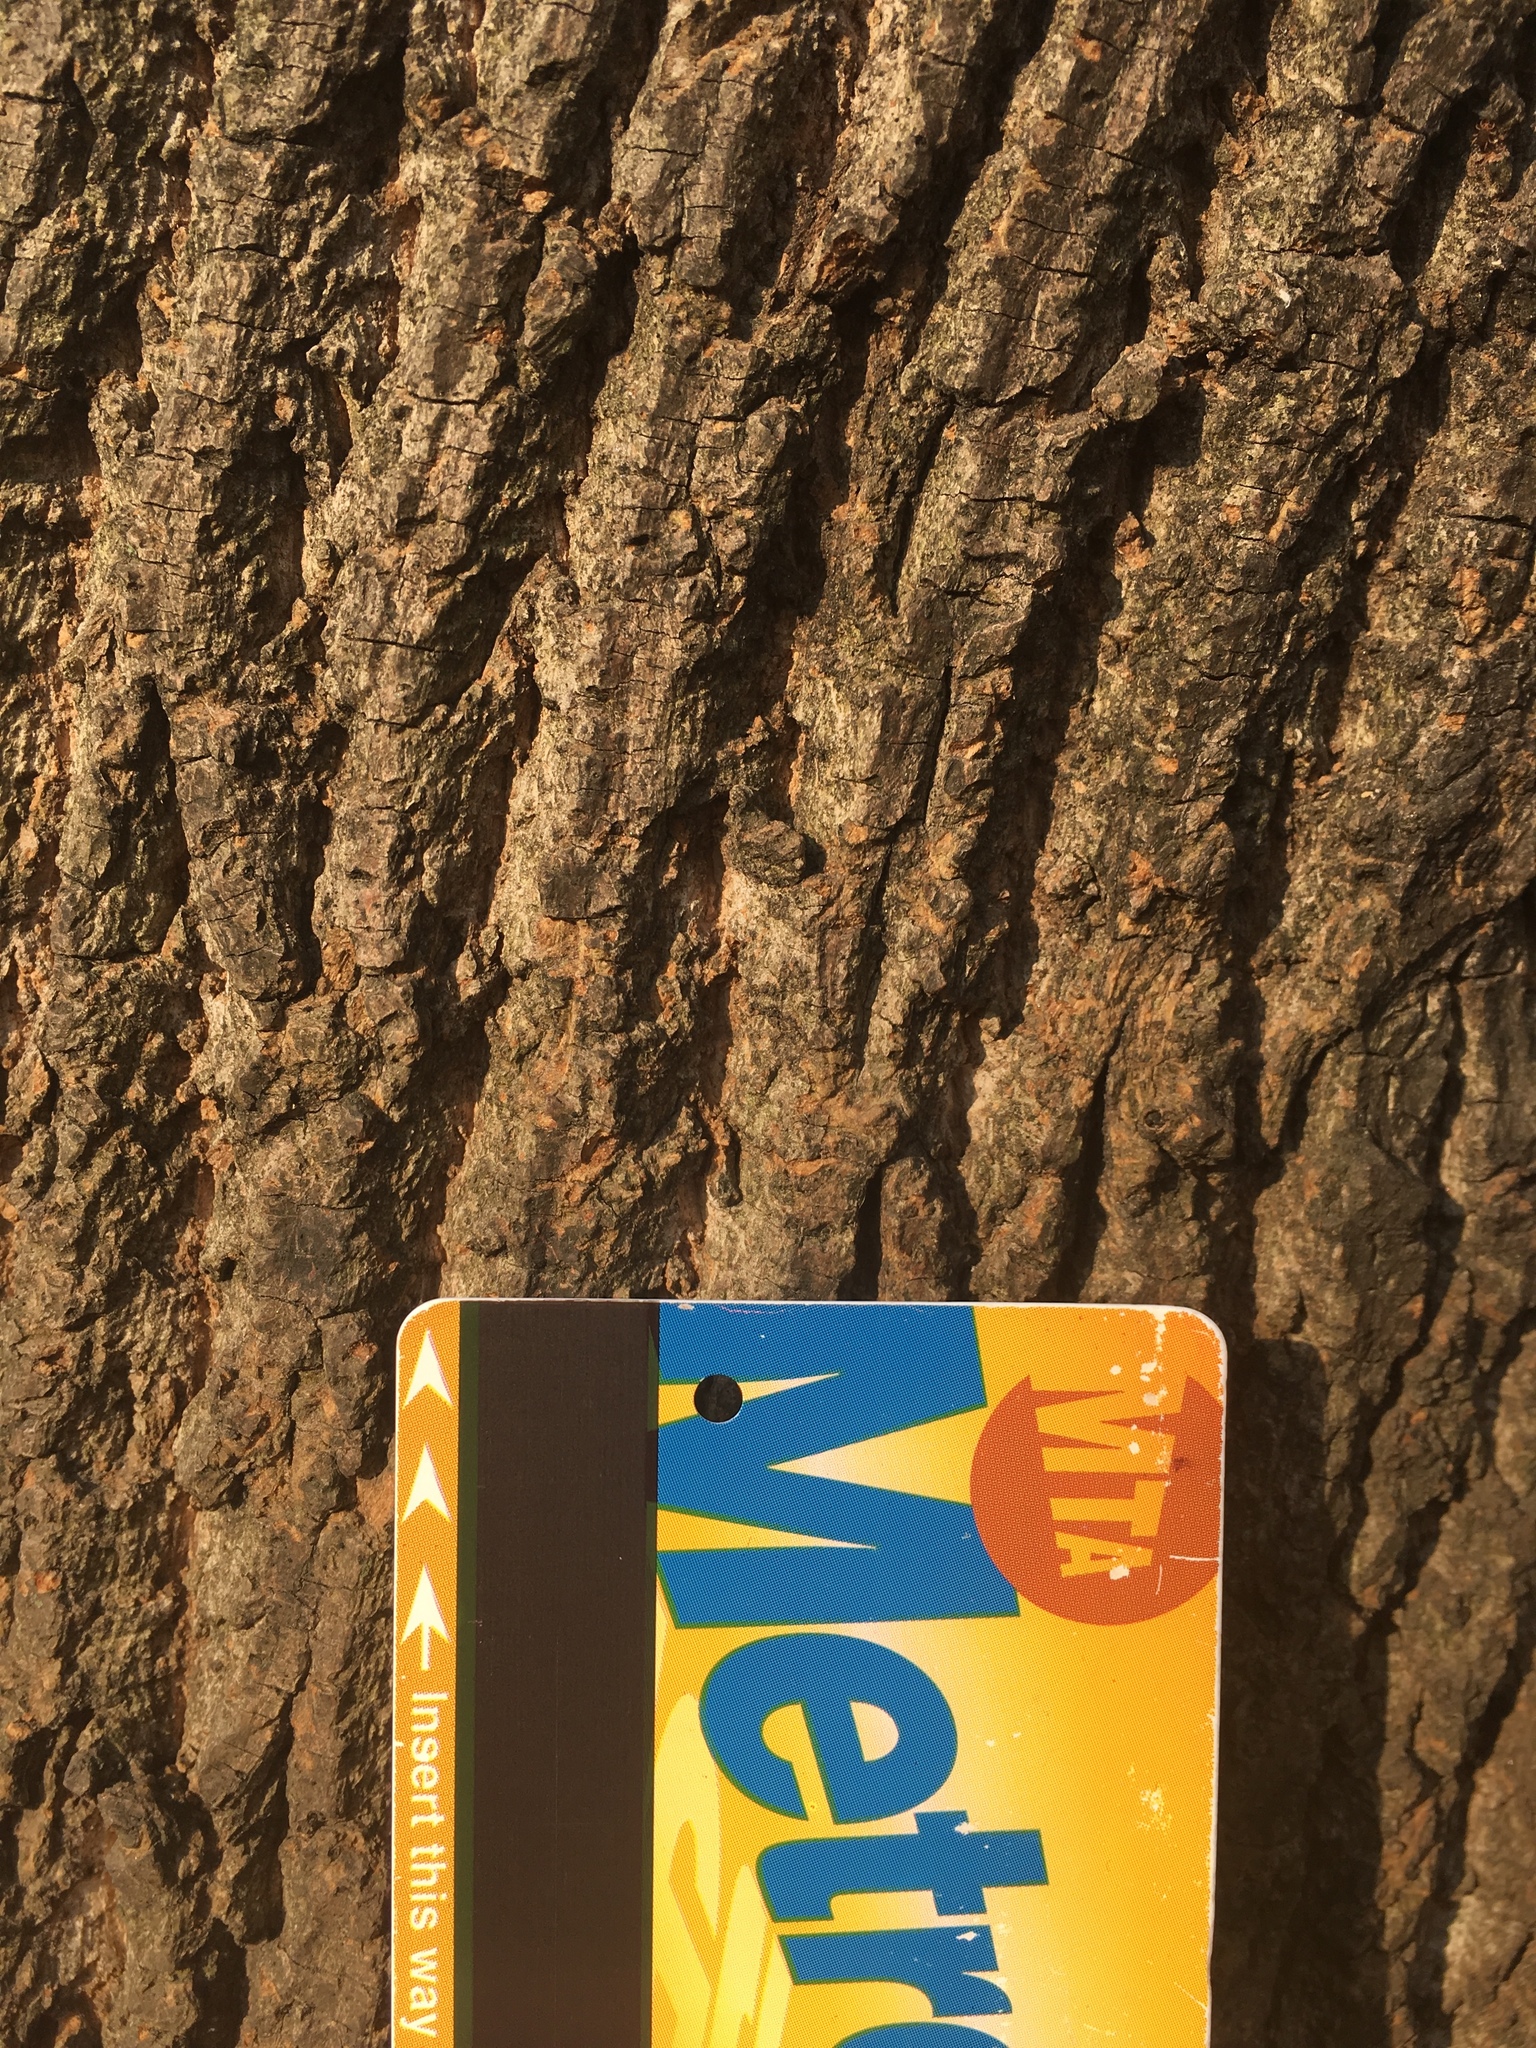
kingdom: Plantae
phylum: Tracheophyta
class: Magnoliopsida
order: Magnoliales
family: Magnoliaceae
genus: Liriodendron
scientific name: Liriodendron tulipifera
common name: Tulip tree
